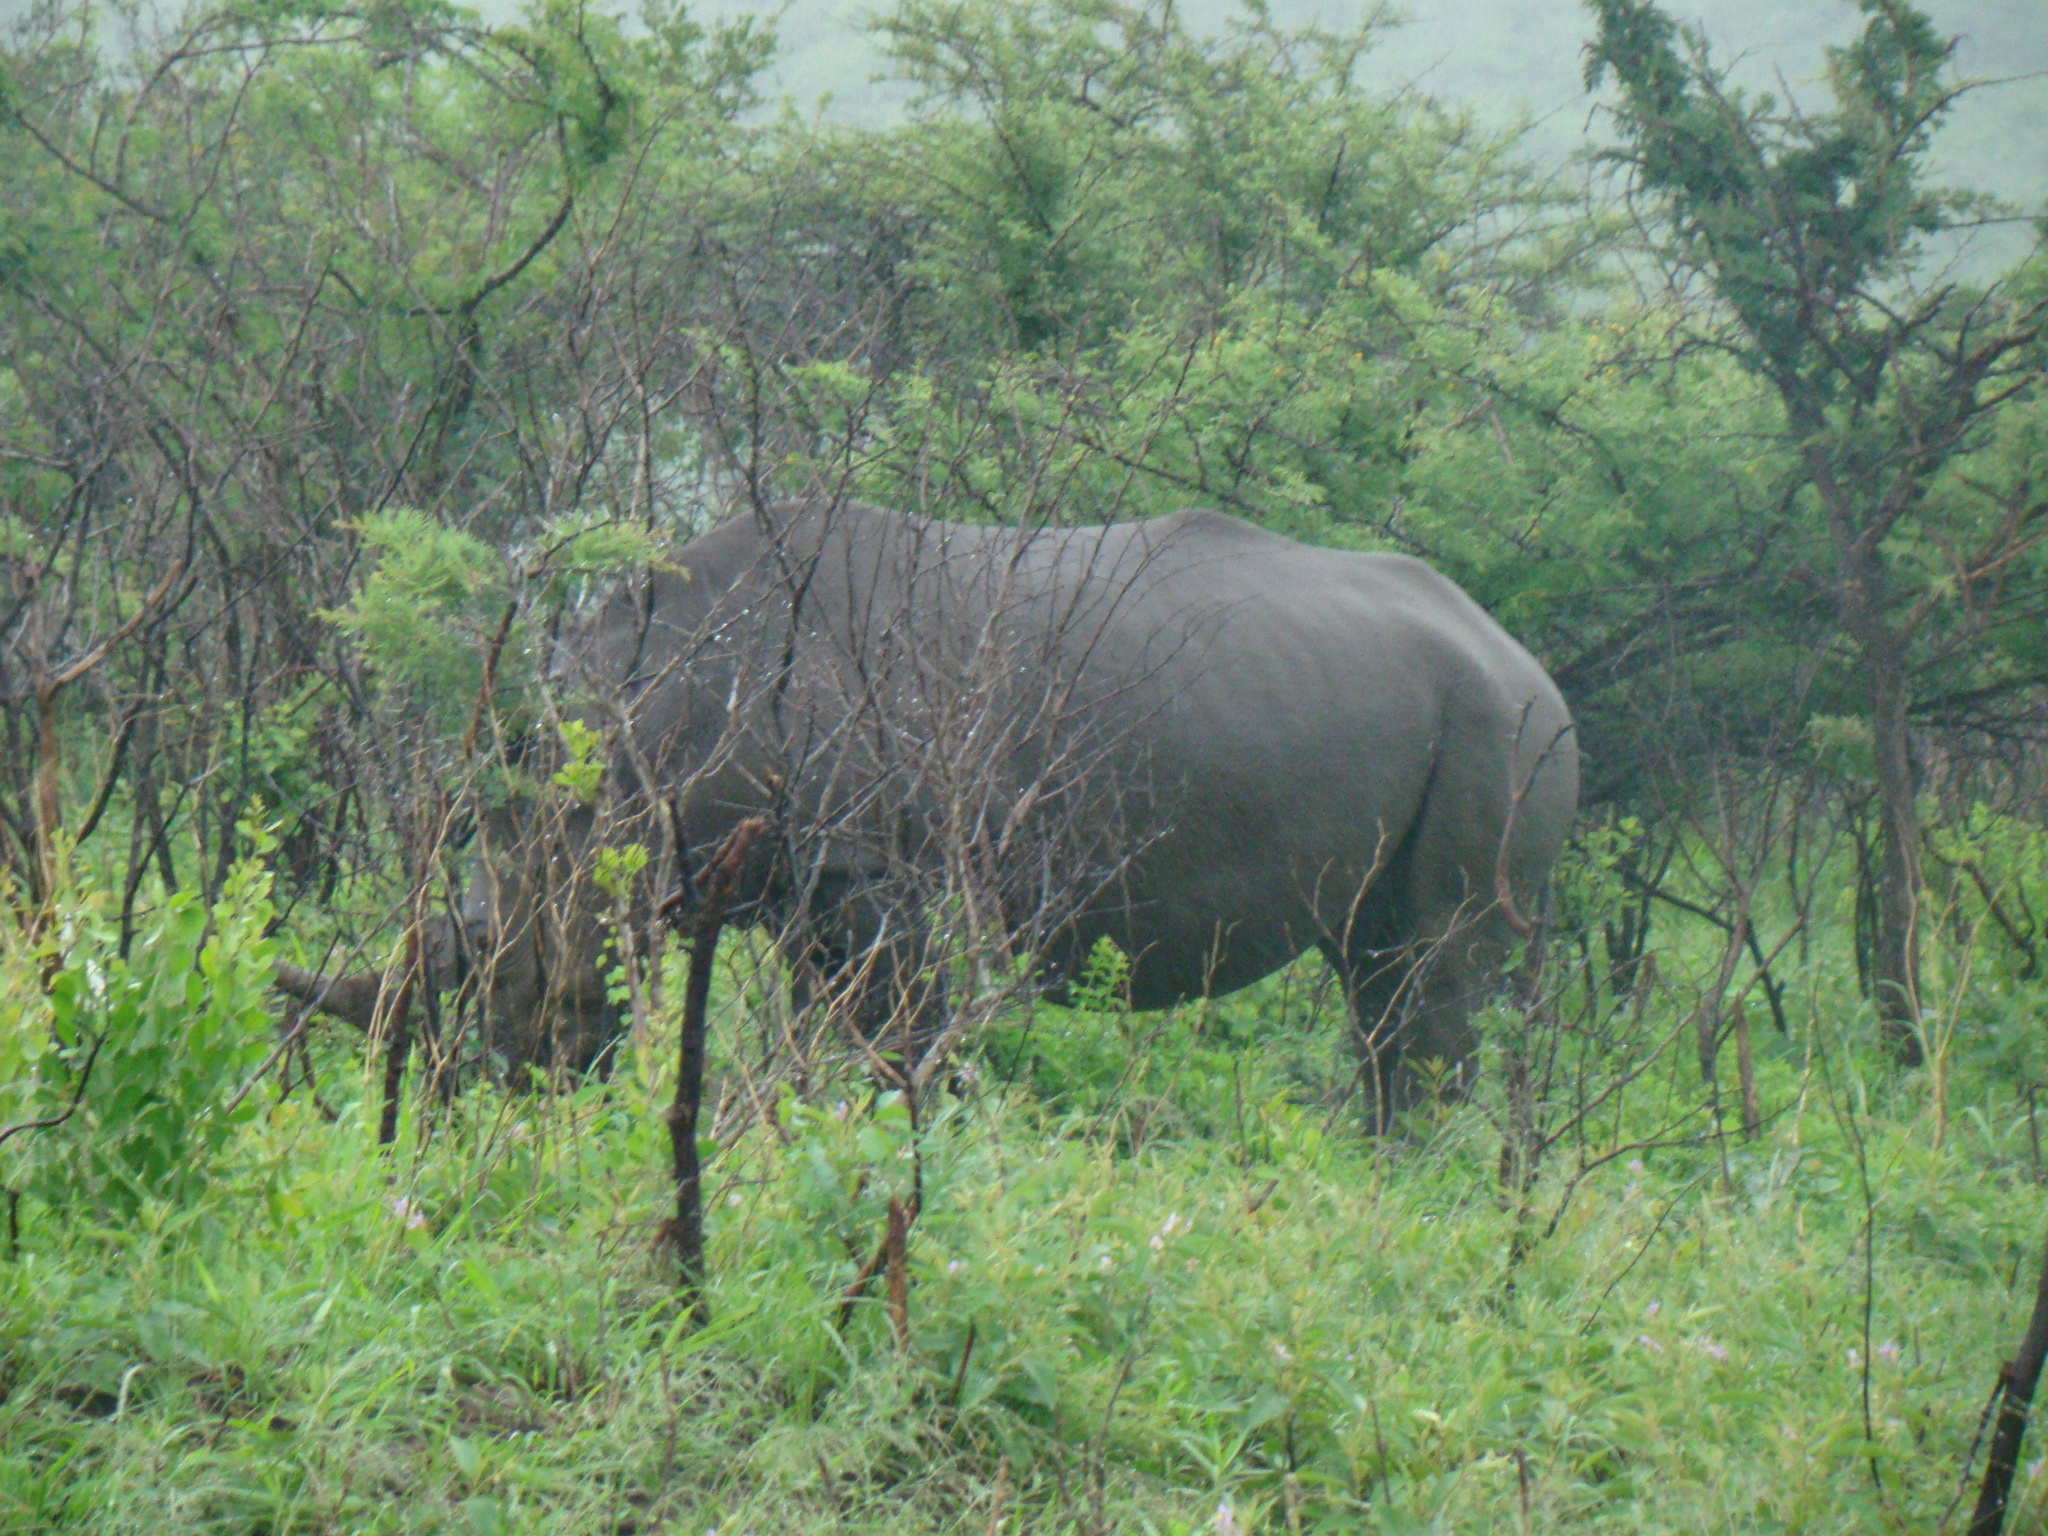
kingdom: Animalia
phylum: Chordata
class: Mammalia
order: Perissodactyla
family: Rhinocerotidae
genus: Ceratotherium
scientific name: Ceratotherium simum
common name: White rhinoceros
